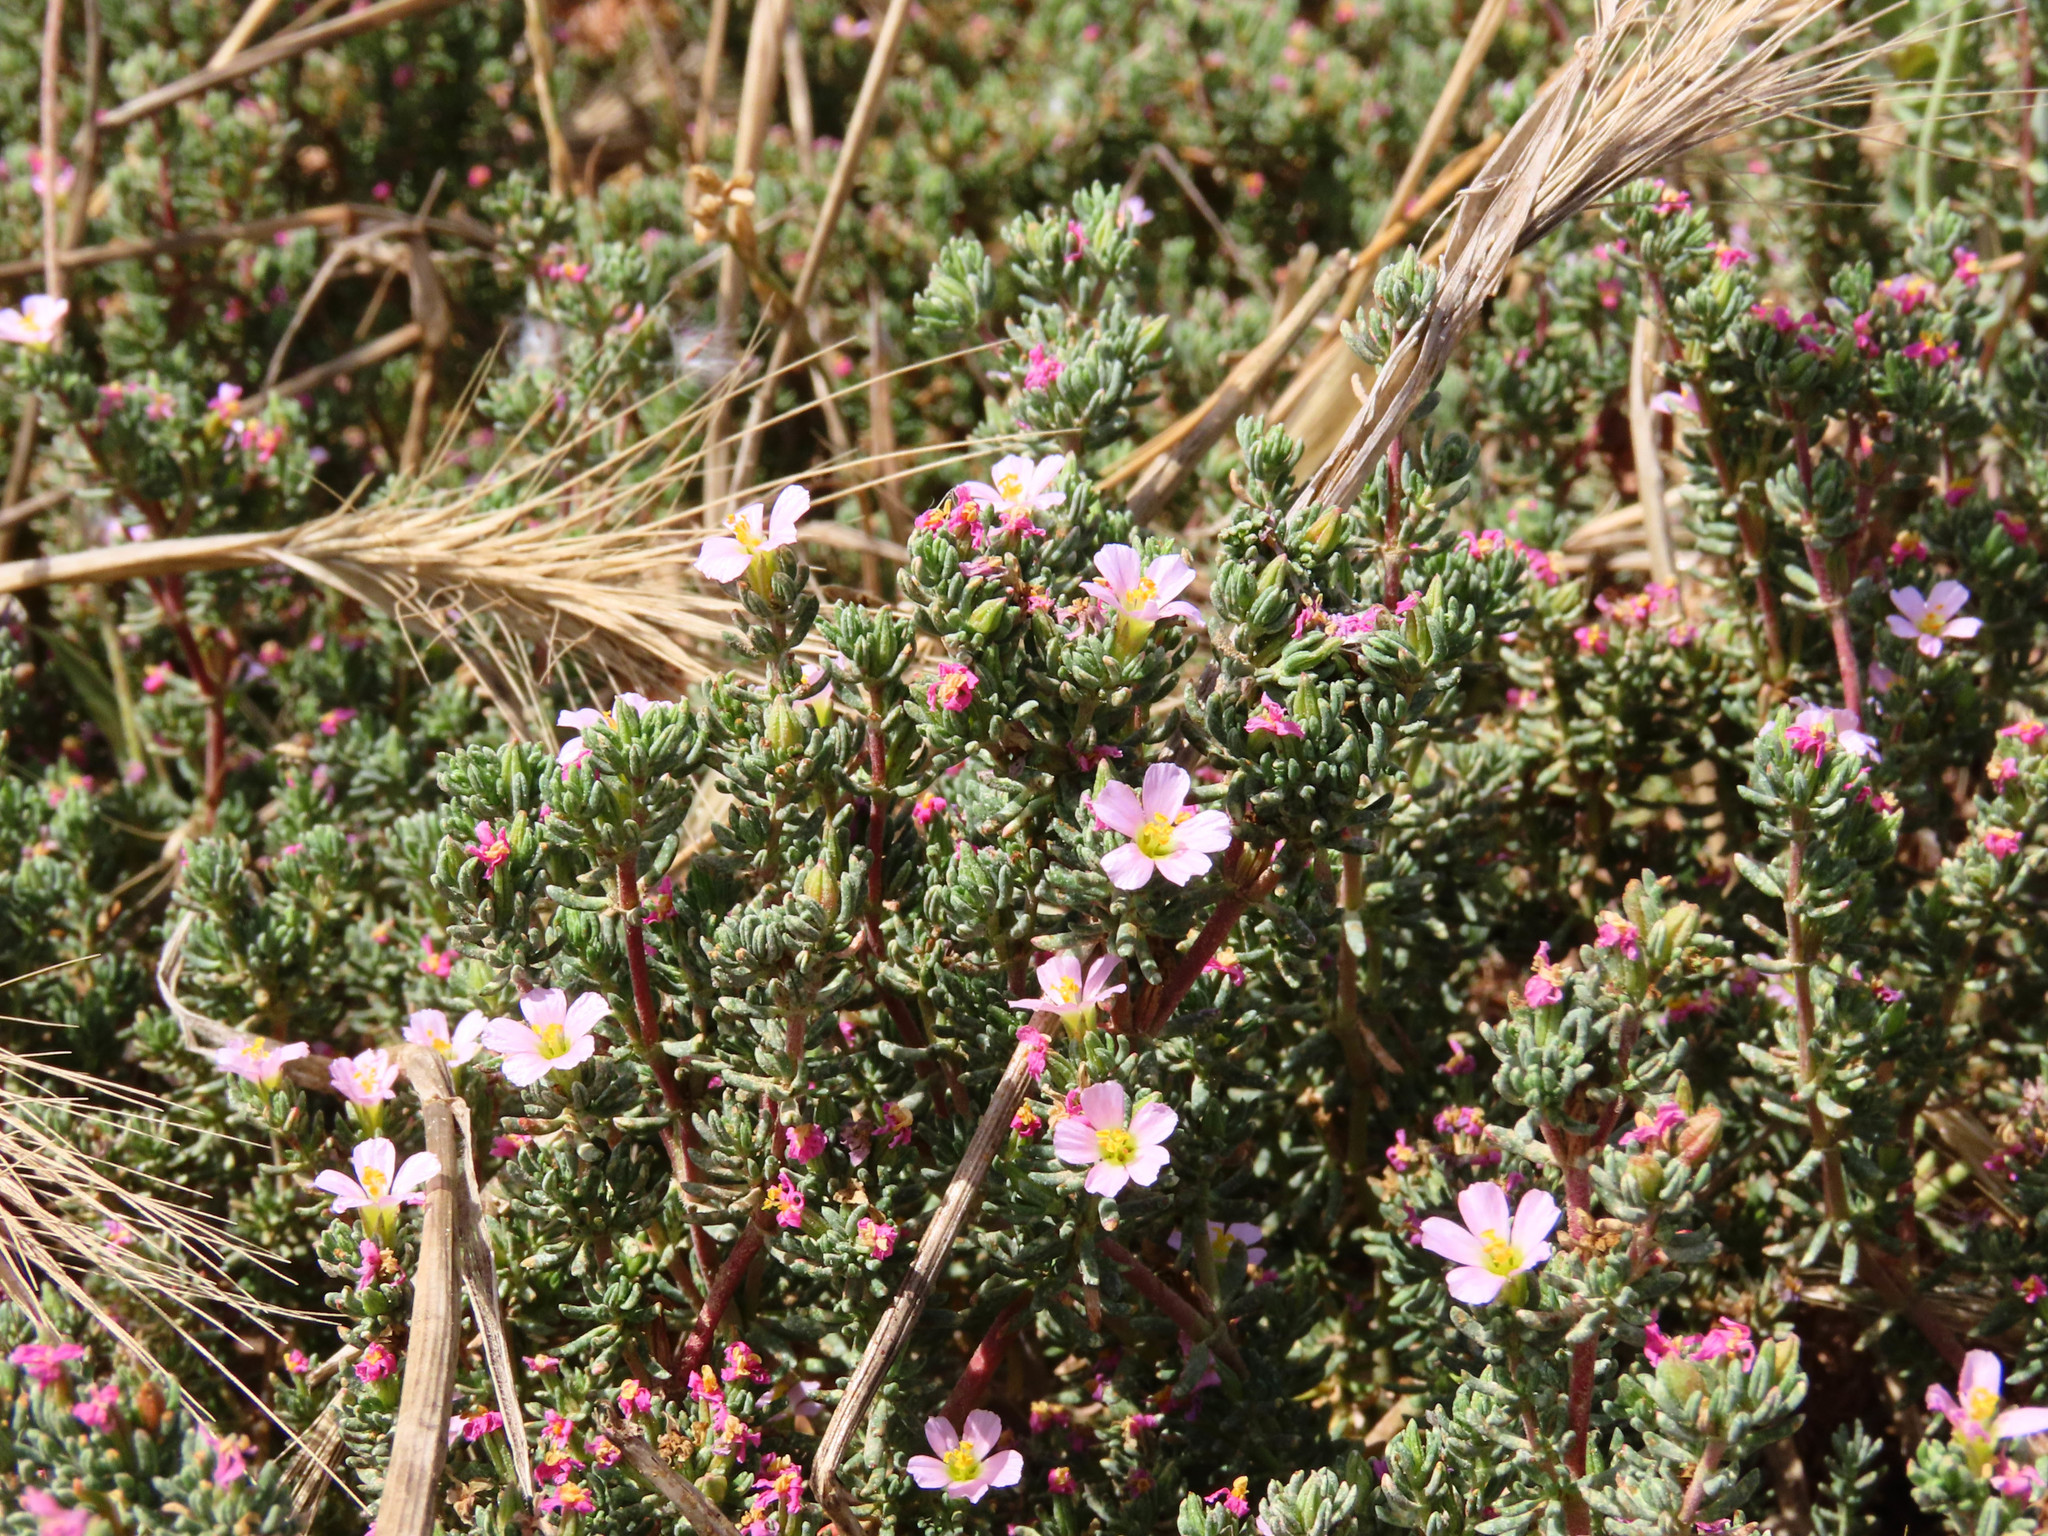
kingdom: Plantae
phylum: Tracheophyta
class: Magnoliopsida
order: Caryophyllales
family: Frankeniaceae
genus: Frankenia
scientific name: Frankenia laevis
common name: Sea-heath
